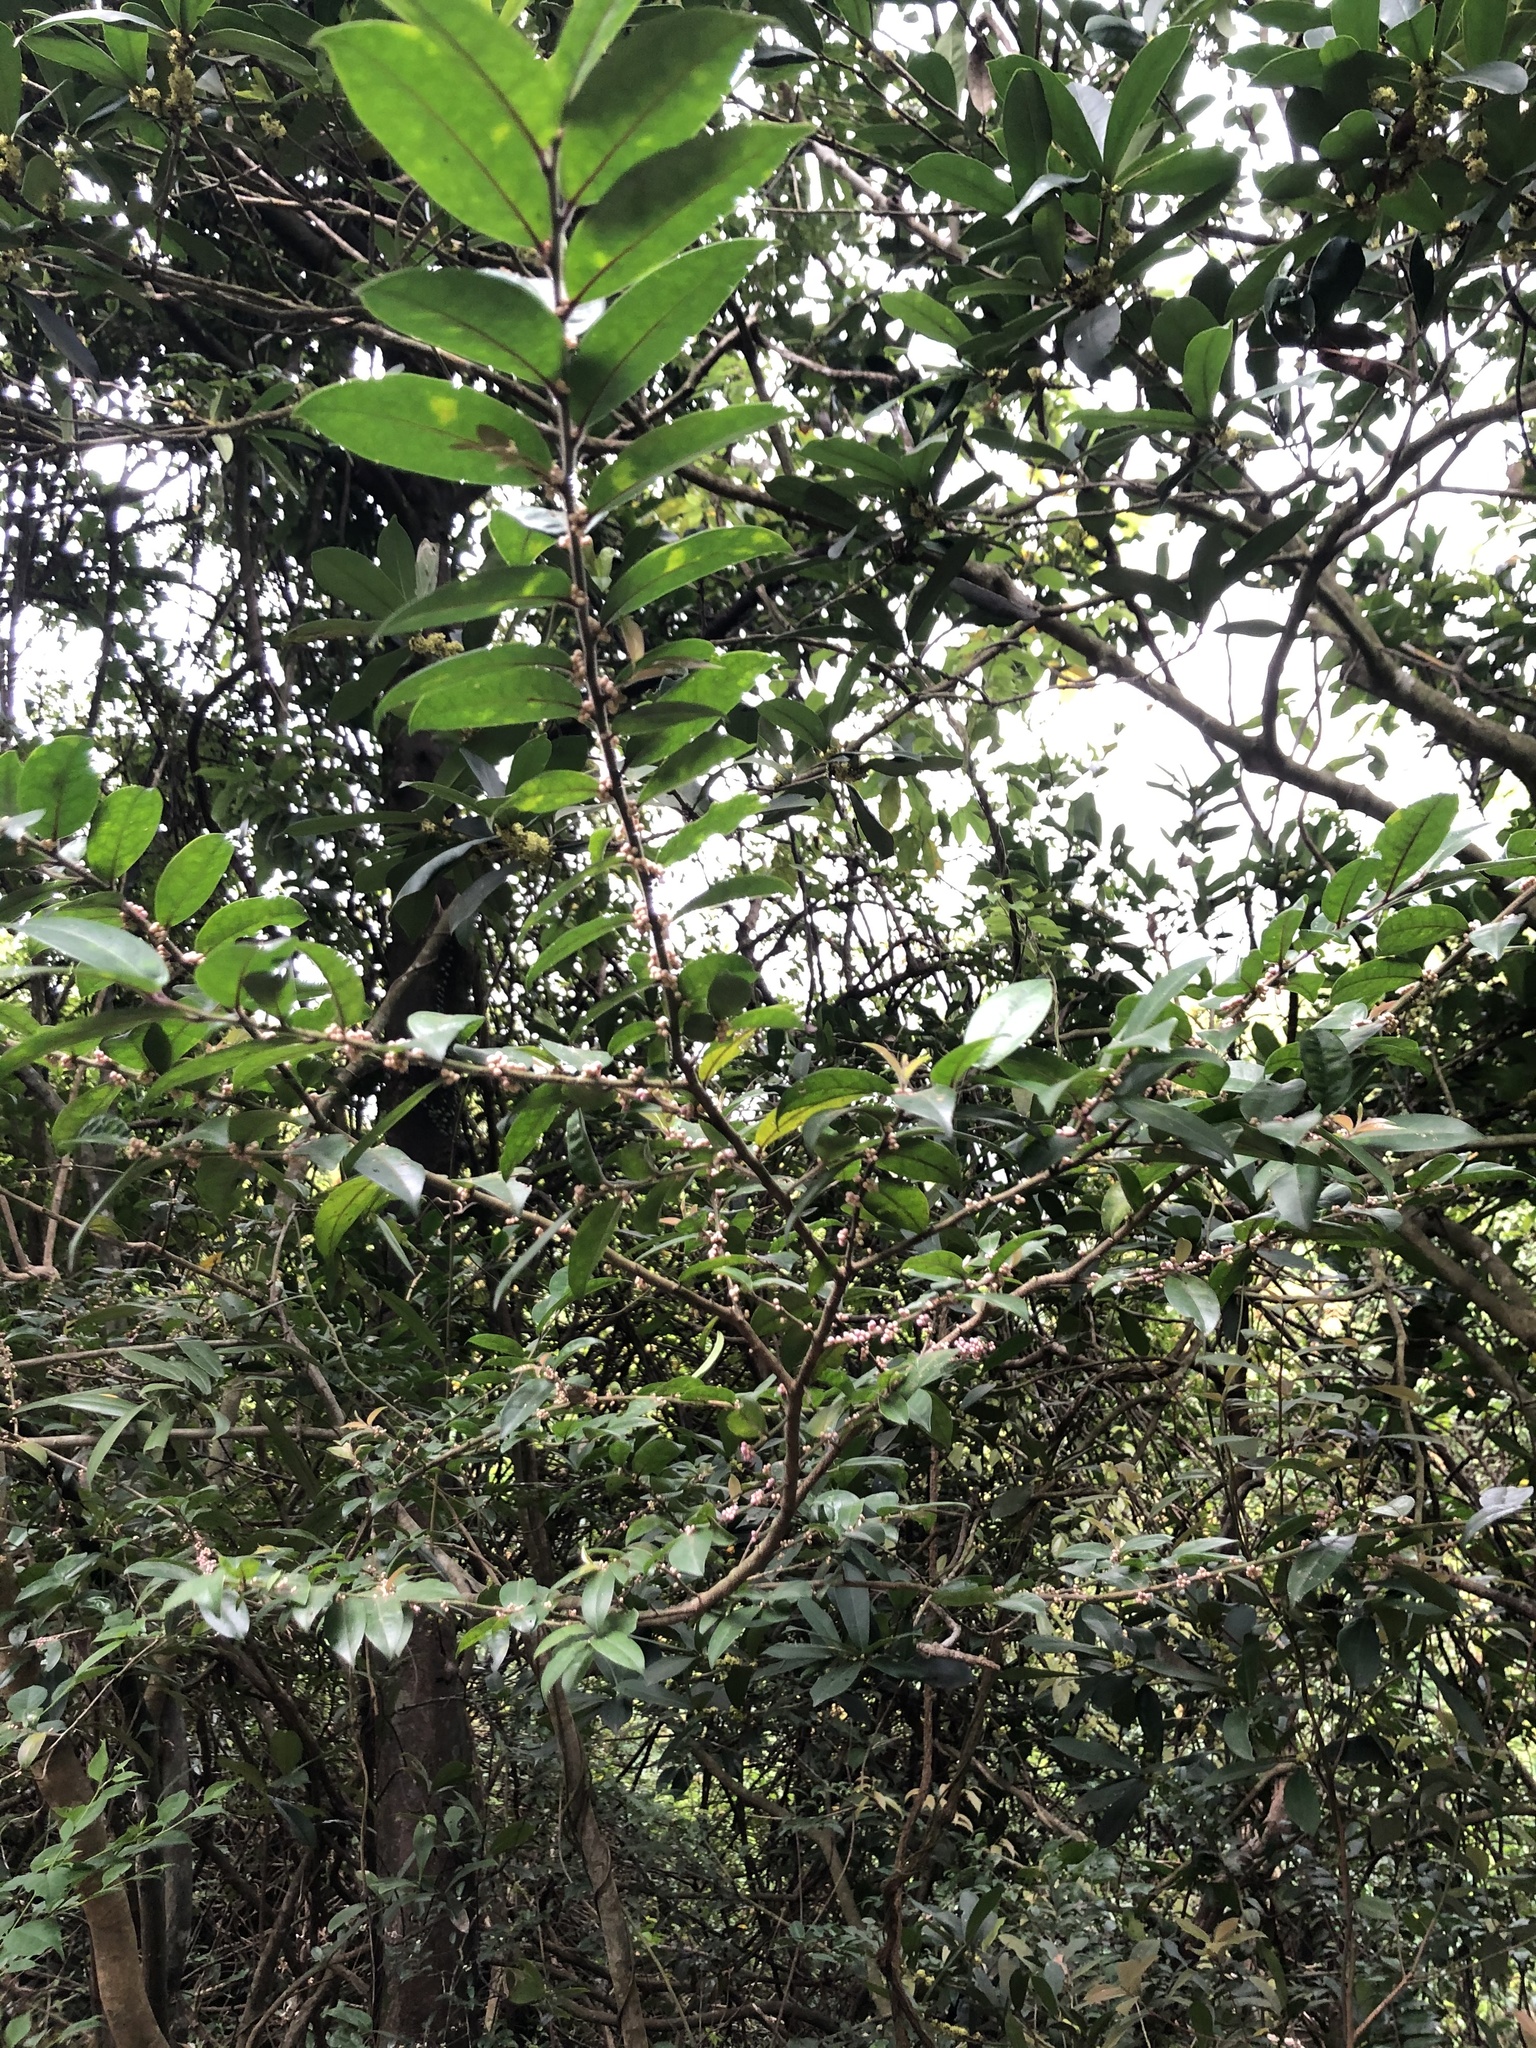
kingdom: Plantae
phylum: Tracheophyta
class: Magnoliopsida
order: Aquifoliales
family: Aquifoliaceae
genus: Ilex
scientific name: Ilex pubescens
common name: Pubescent holly
